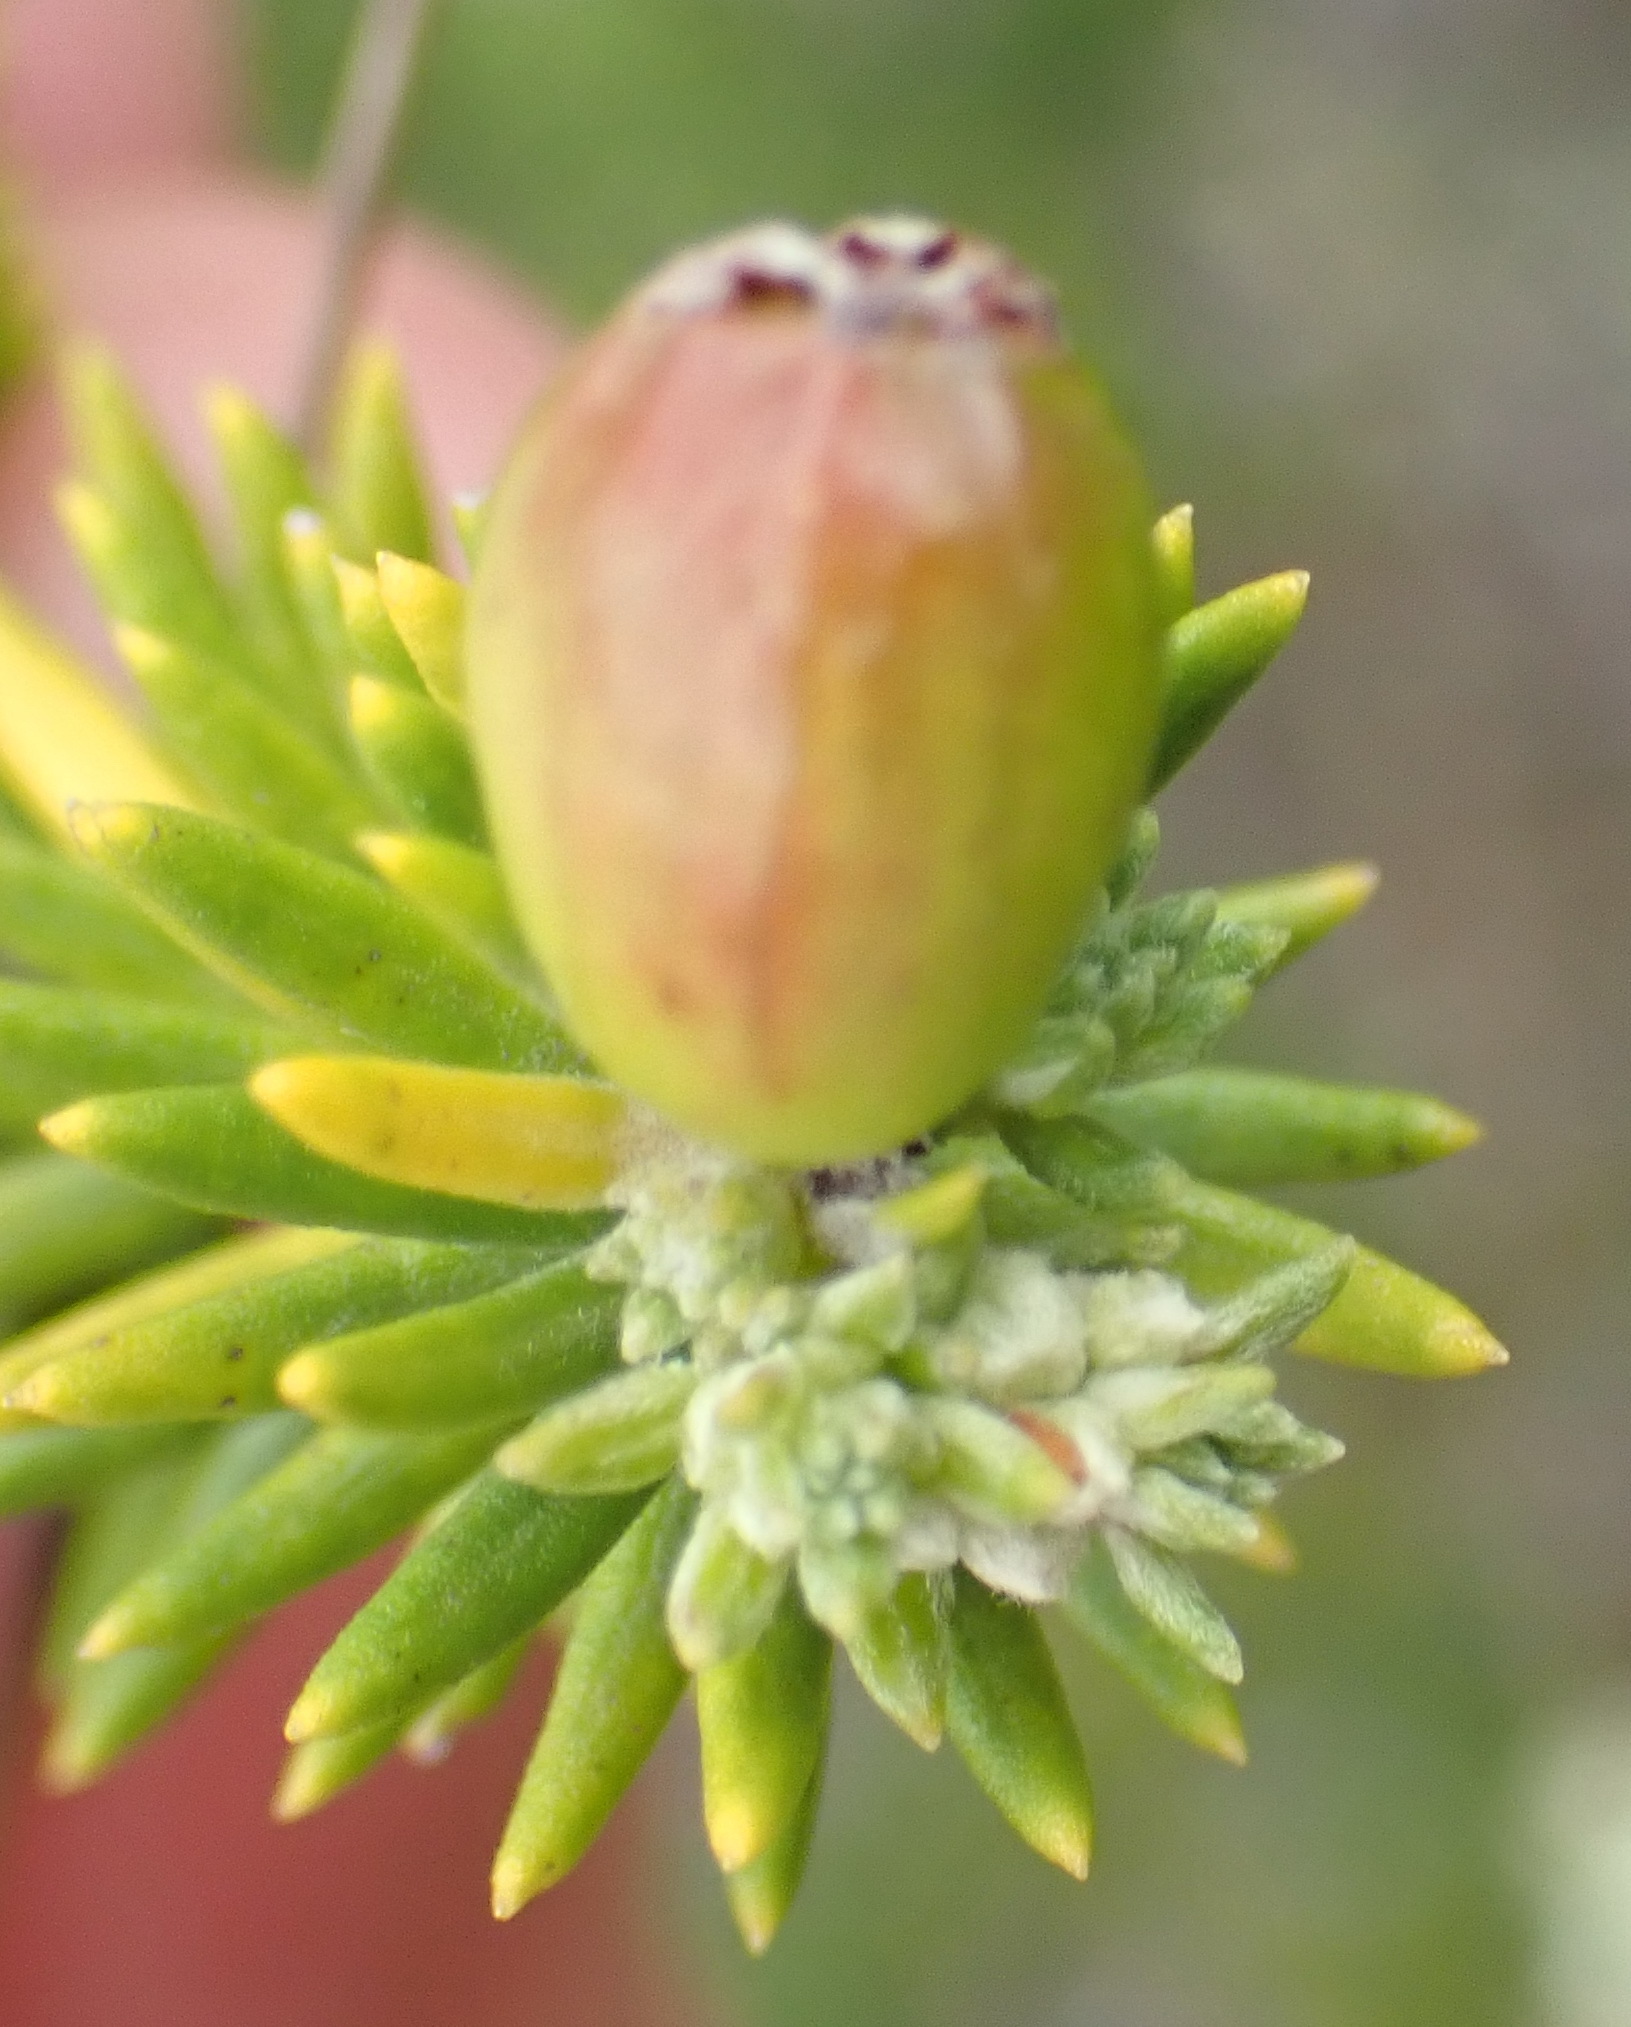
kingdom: Plantae
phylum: Tracheophyta
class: Magnoliopsida
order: Rosales
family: Rhamnaceae
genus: Phylica
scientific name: Phylica axillaris
